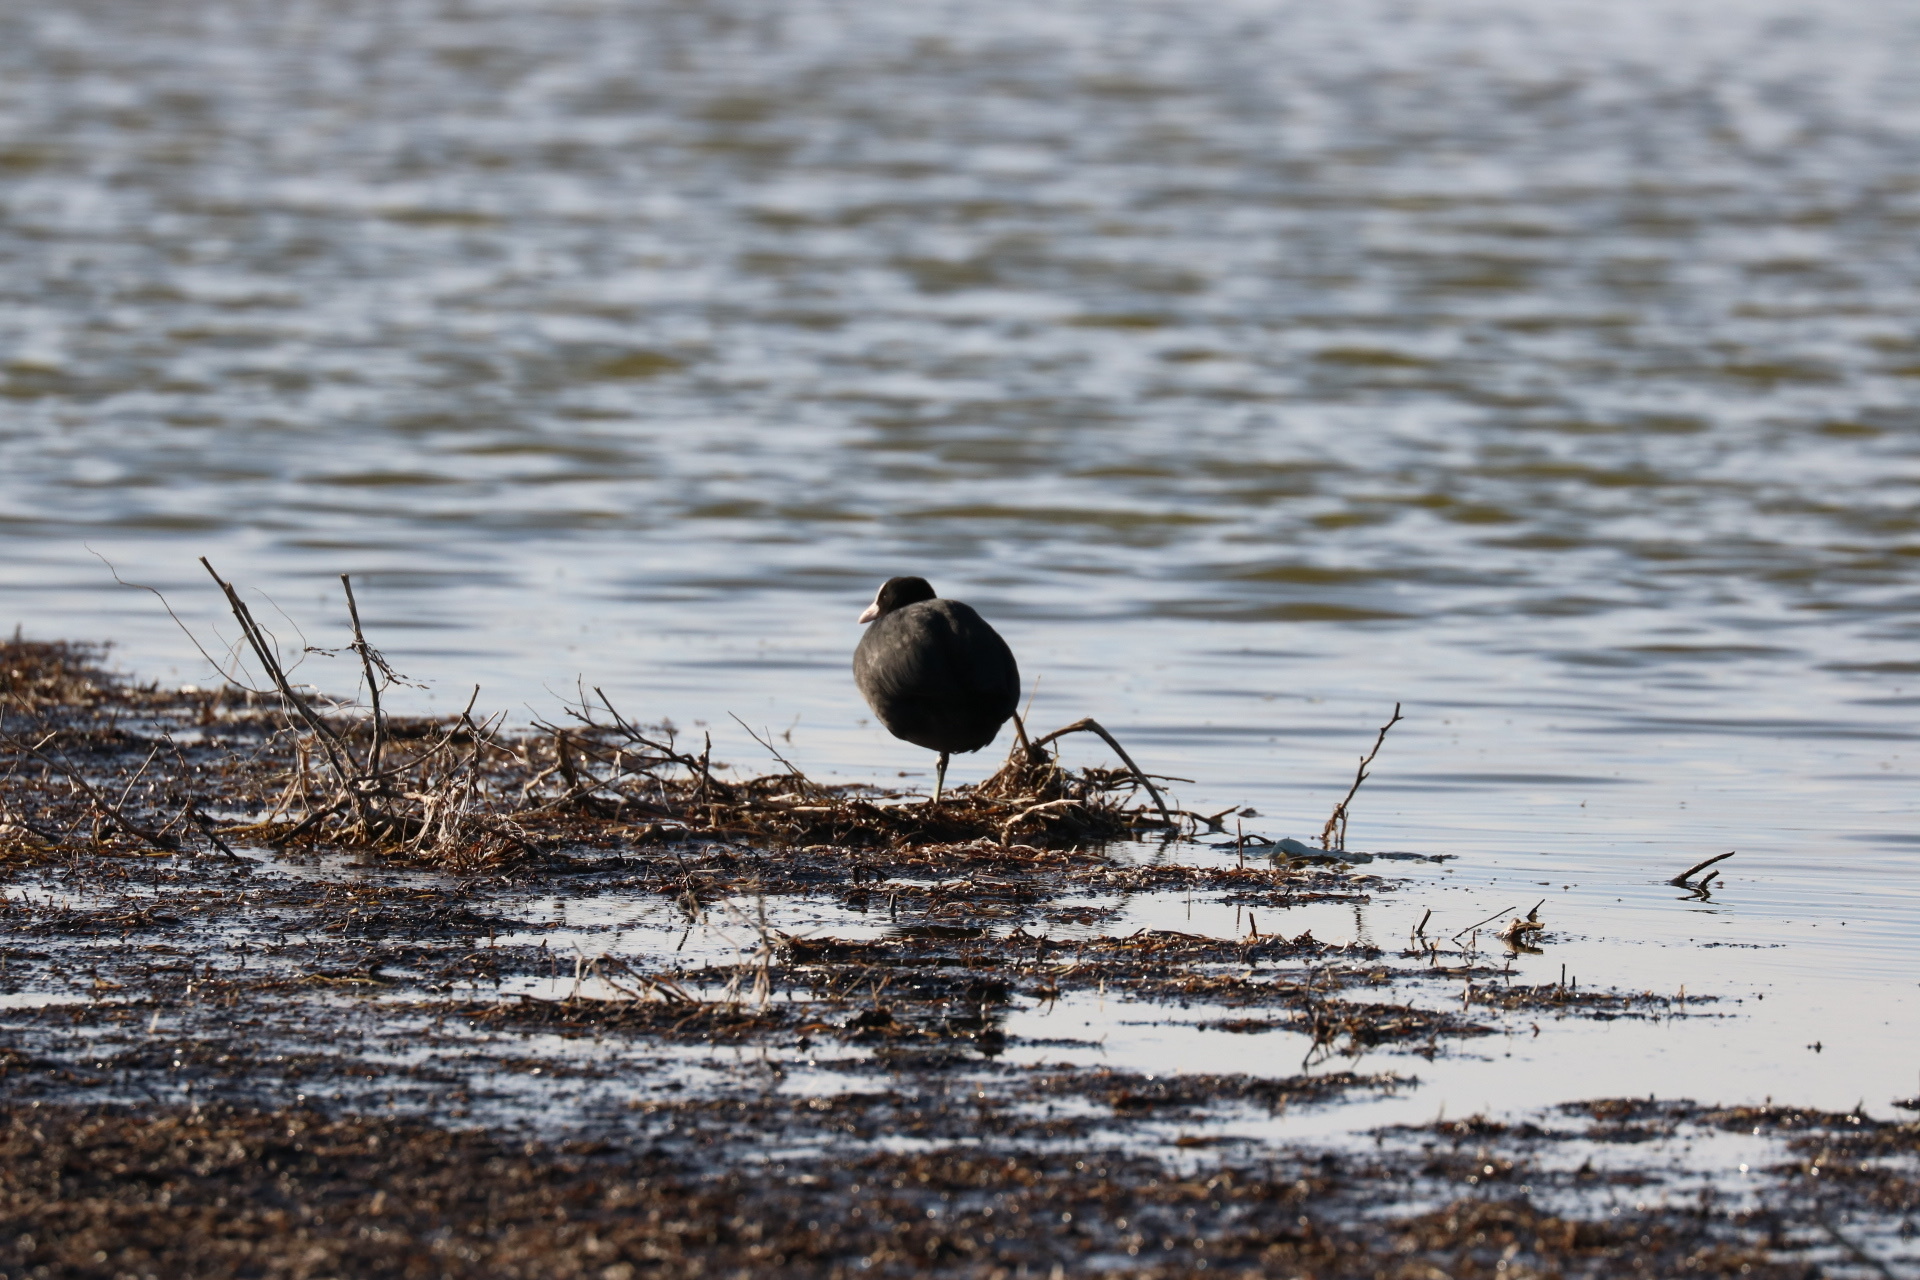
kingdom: Animalia
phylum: Chordata
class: Aves
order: Gruiformes
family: Rallidae
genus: Fulica
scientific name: Fulica atra
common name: Eurasian coot
